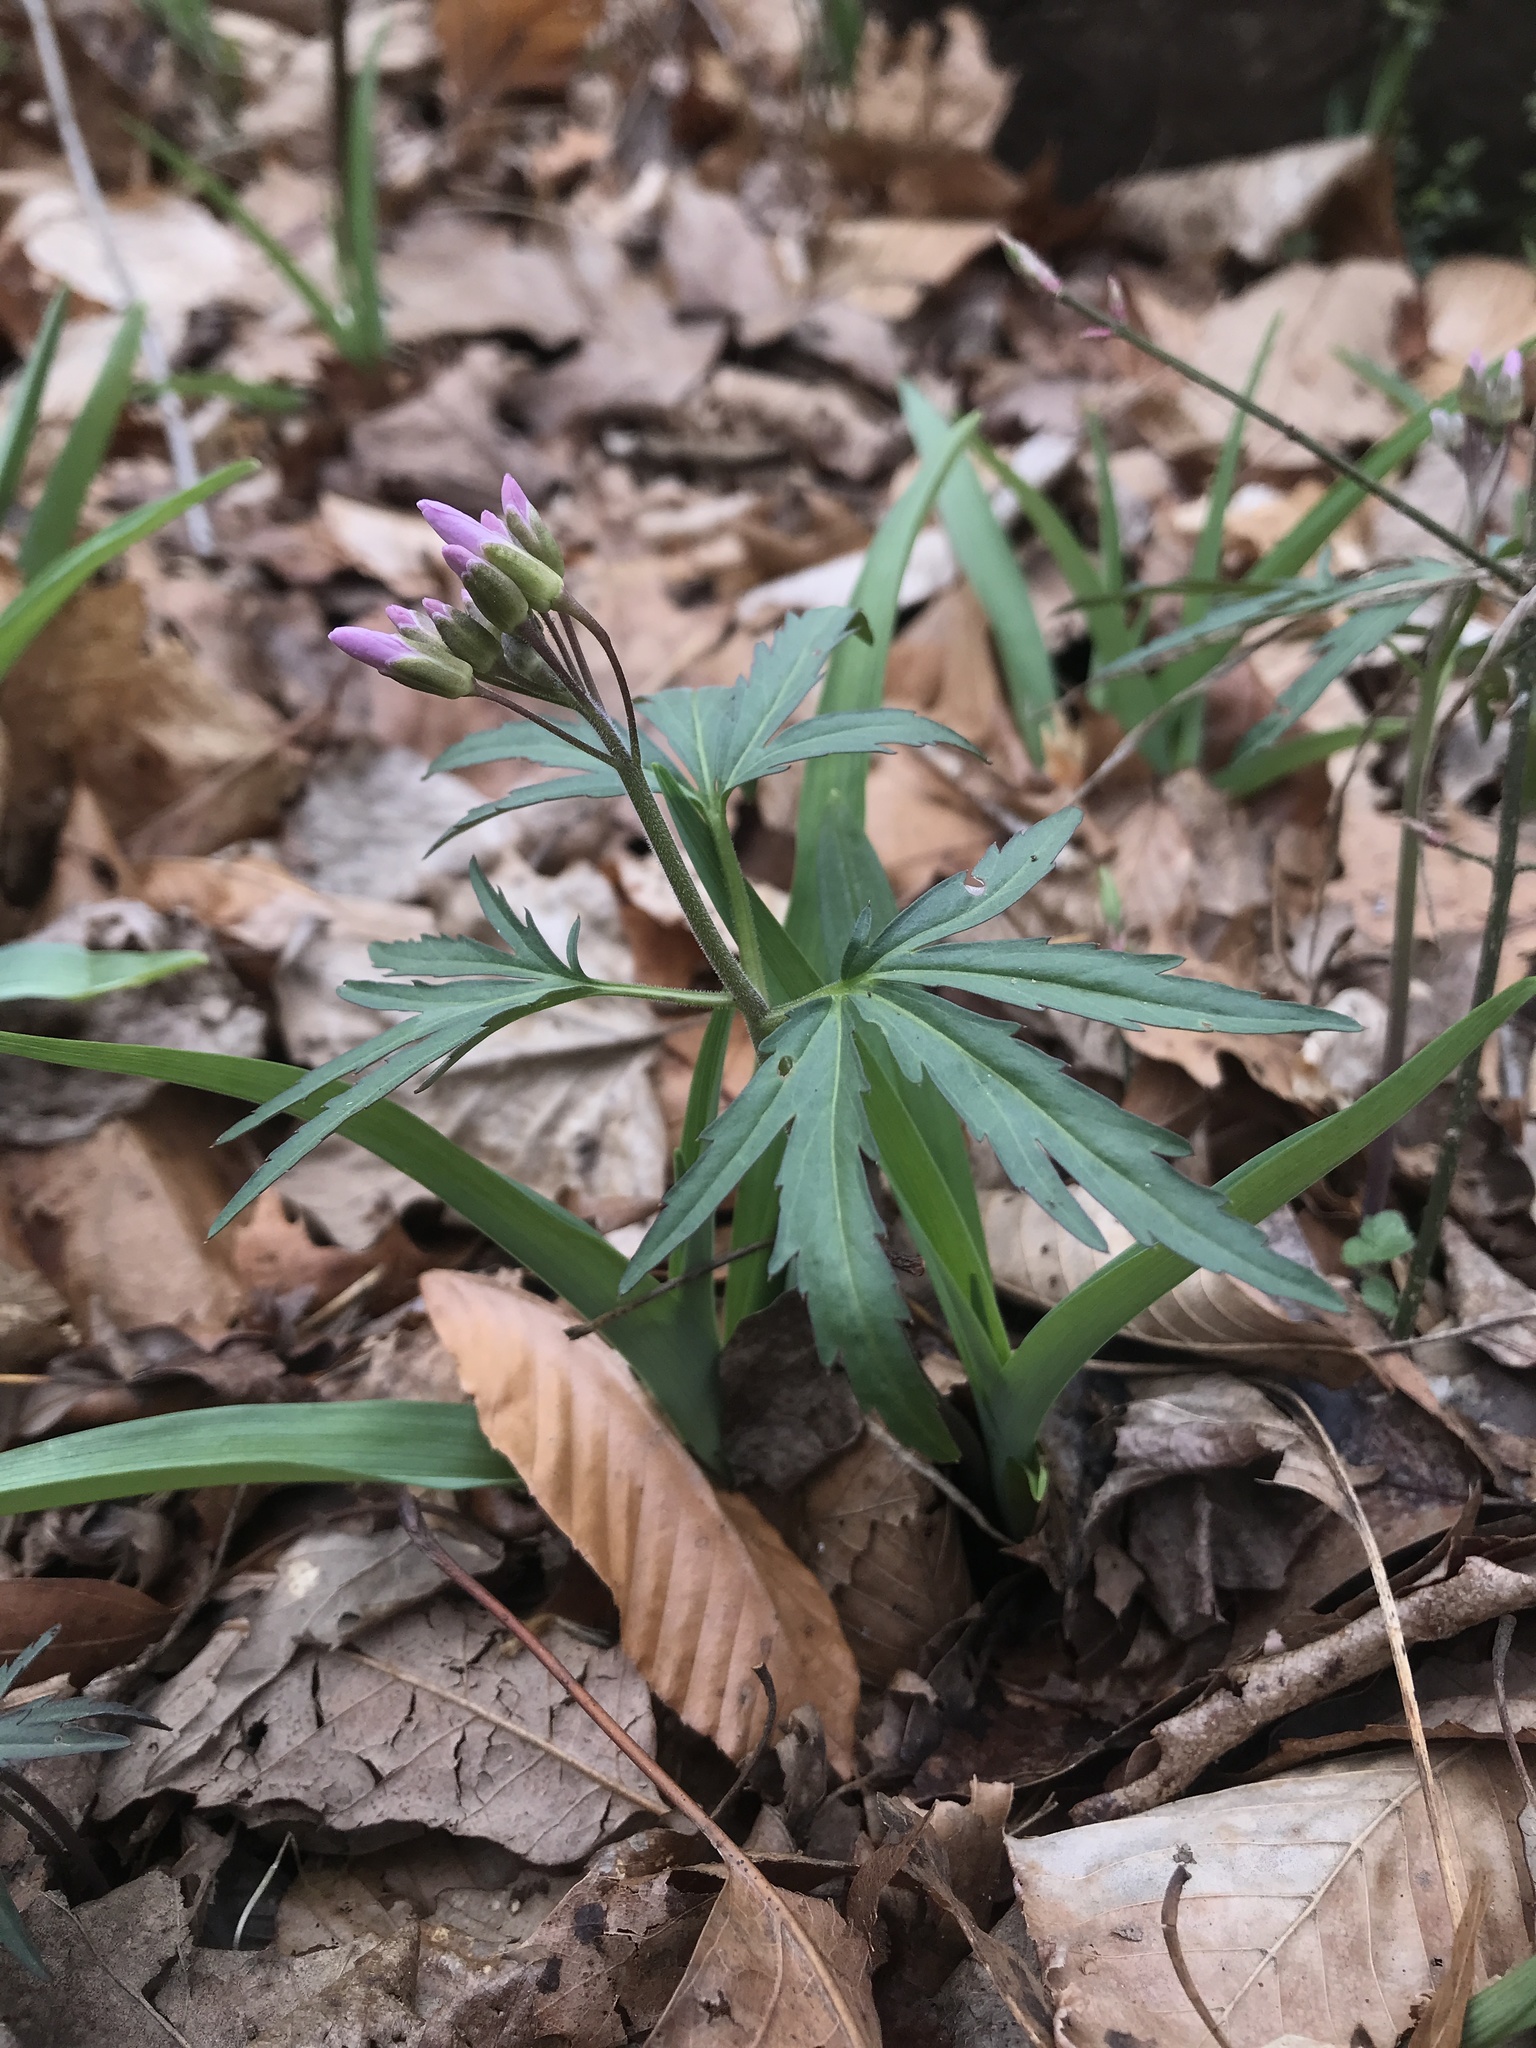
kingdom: Plantae
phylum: Tracheophyta
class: Magnoliopsida
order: Brassicales
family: Brassicaceae
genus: Cardamine
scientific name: Cardamine concatenata
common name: Cut-leaf toothcup
